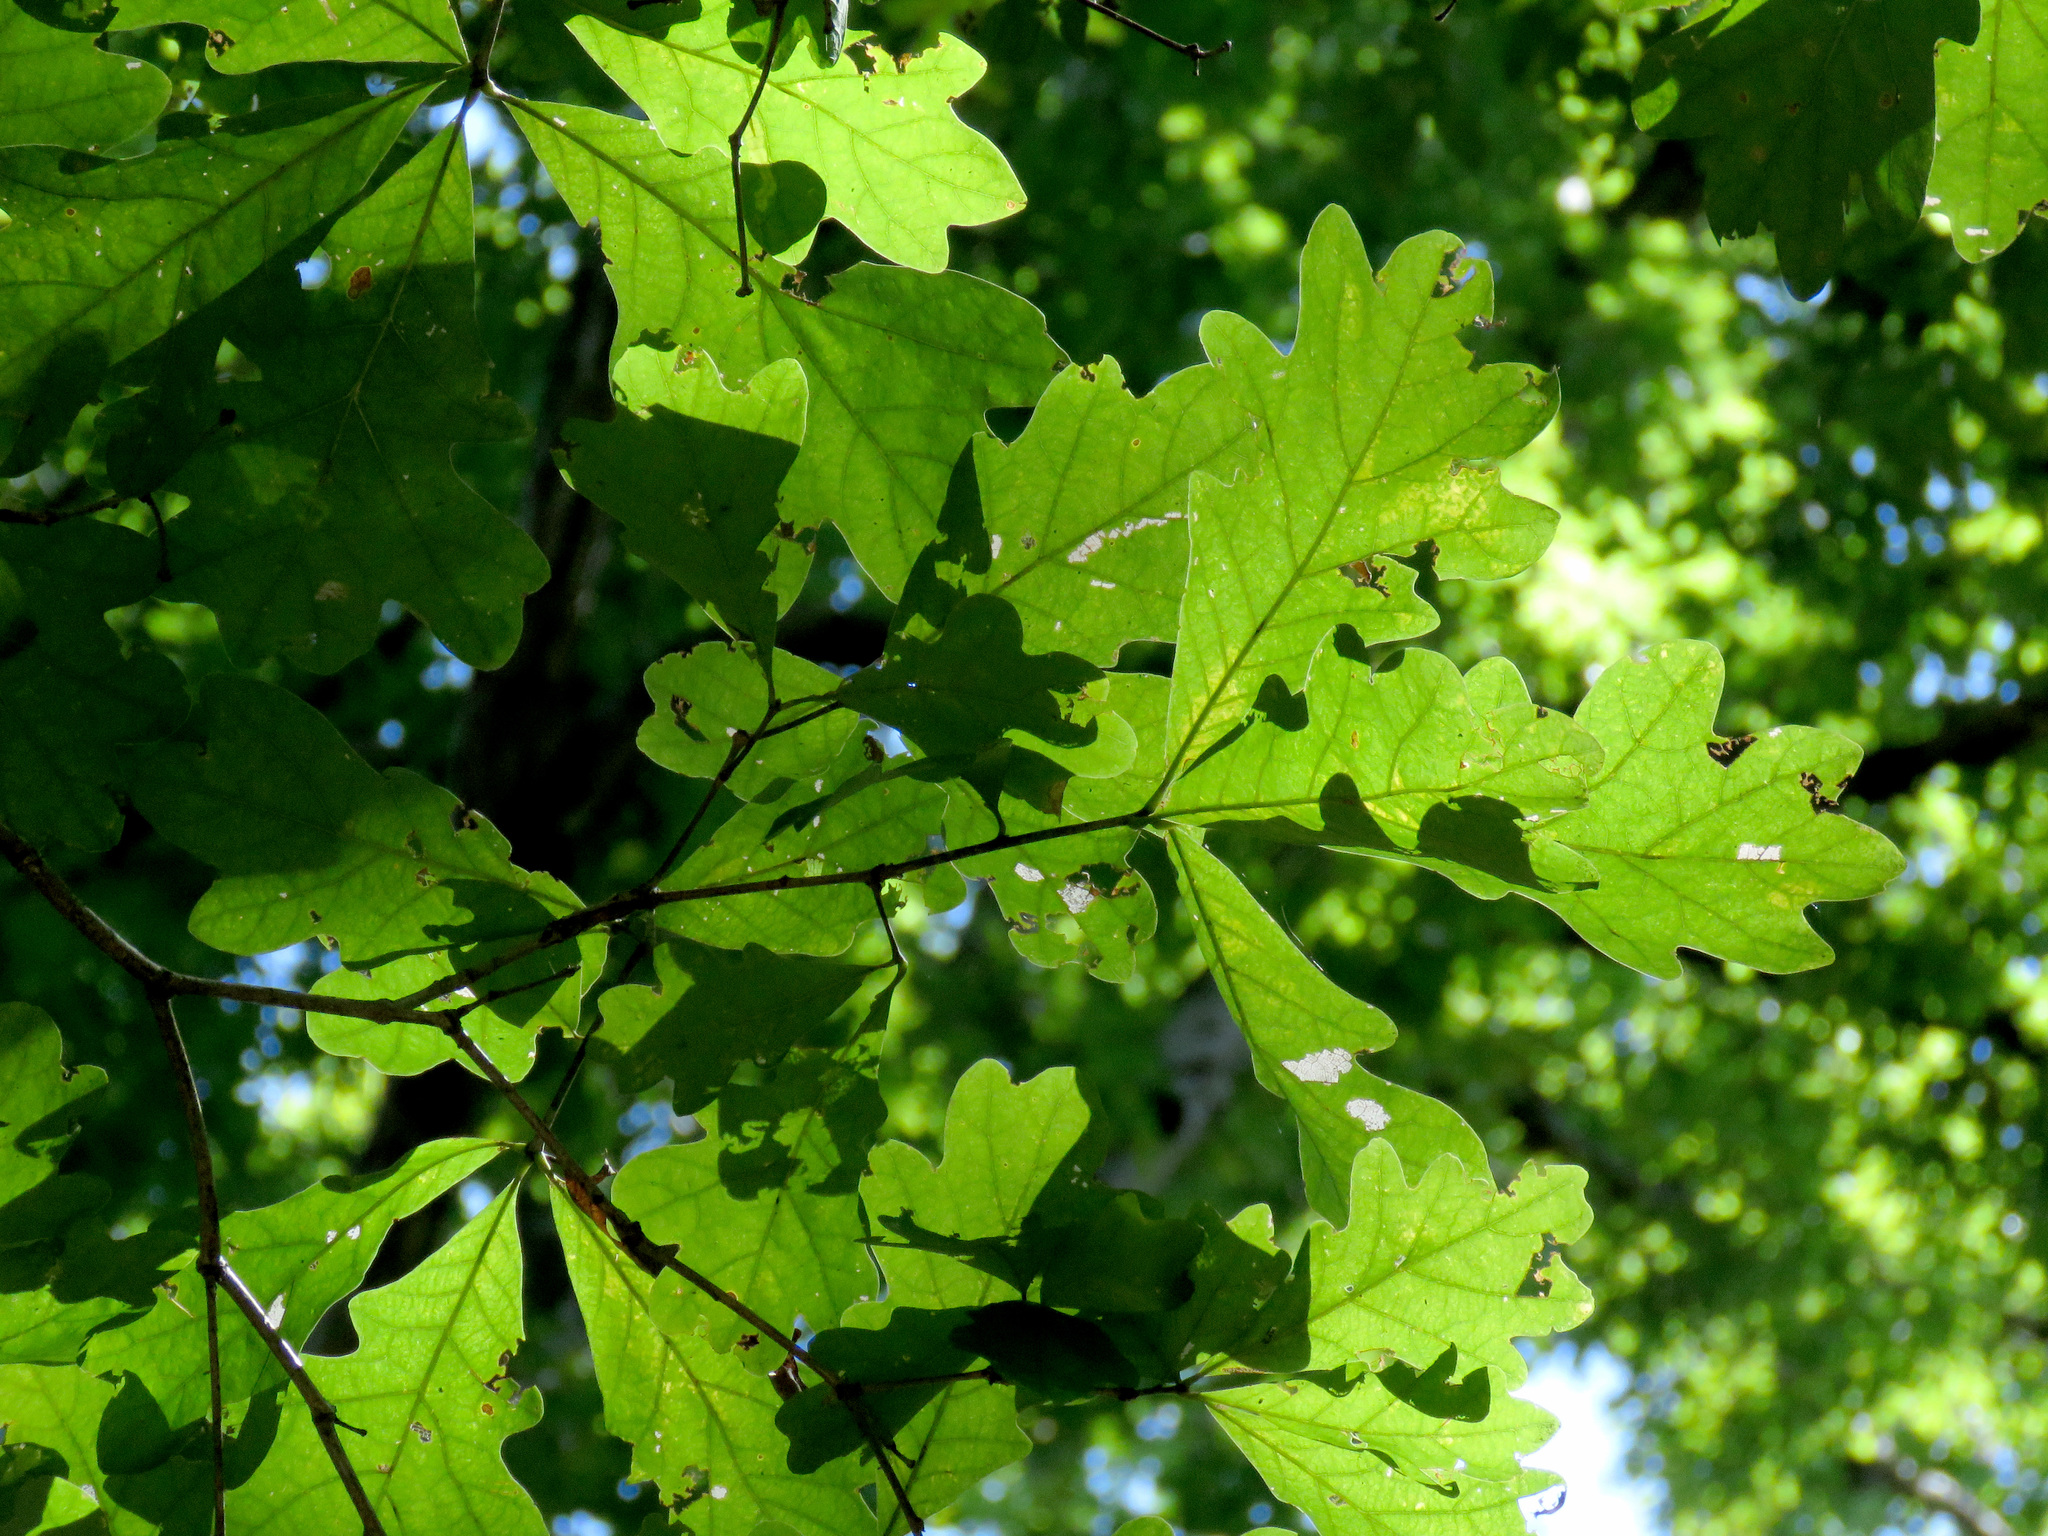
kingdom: Plantae
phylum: Tracheophyta
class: Magnoliopsida
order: Fagales
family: Fagaceae
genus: Quercus
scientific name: Quercus alba
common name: White oak
